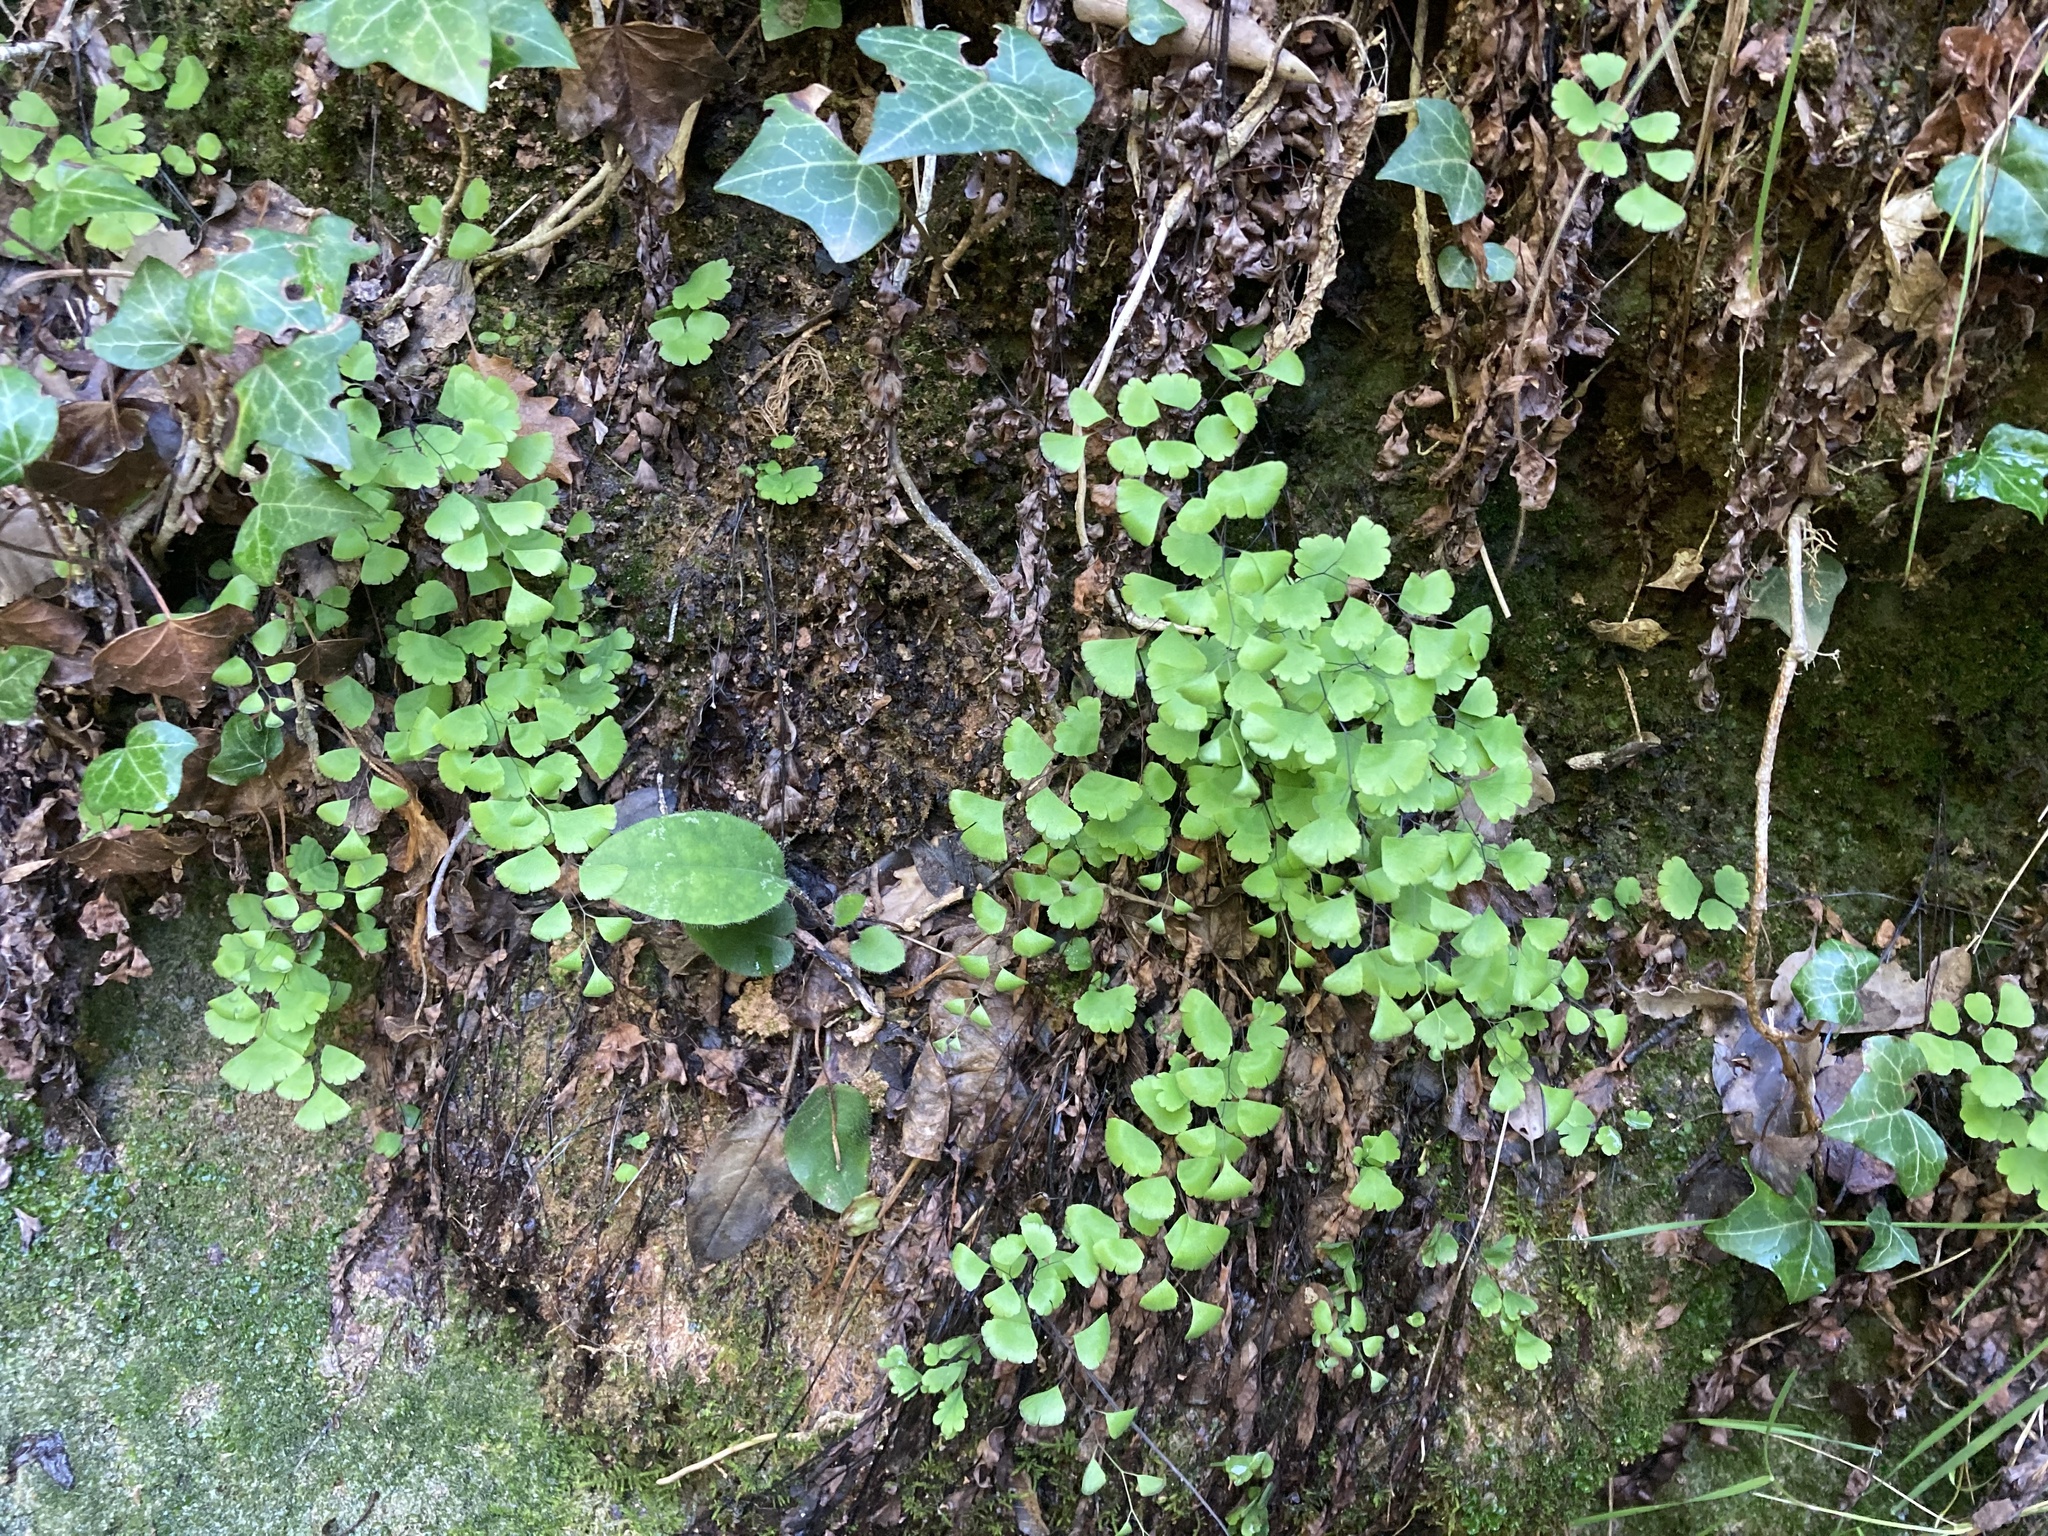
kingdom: Plantae
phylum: Tracheophyta
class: Polypodiopsida
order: Polypodiales
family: Pteridaceae
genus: Adiantum
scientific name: Adiantum capillus-veneris
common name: Maidenhair fern
